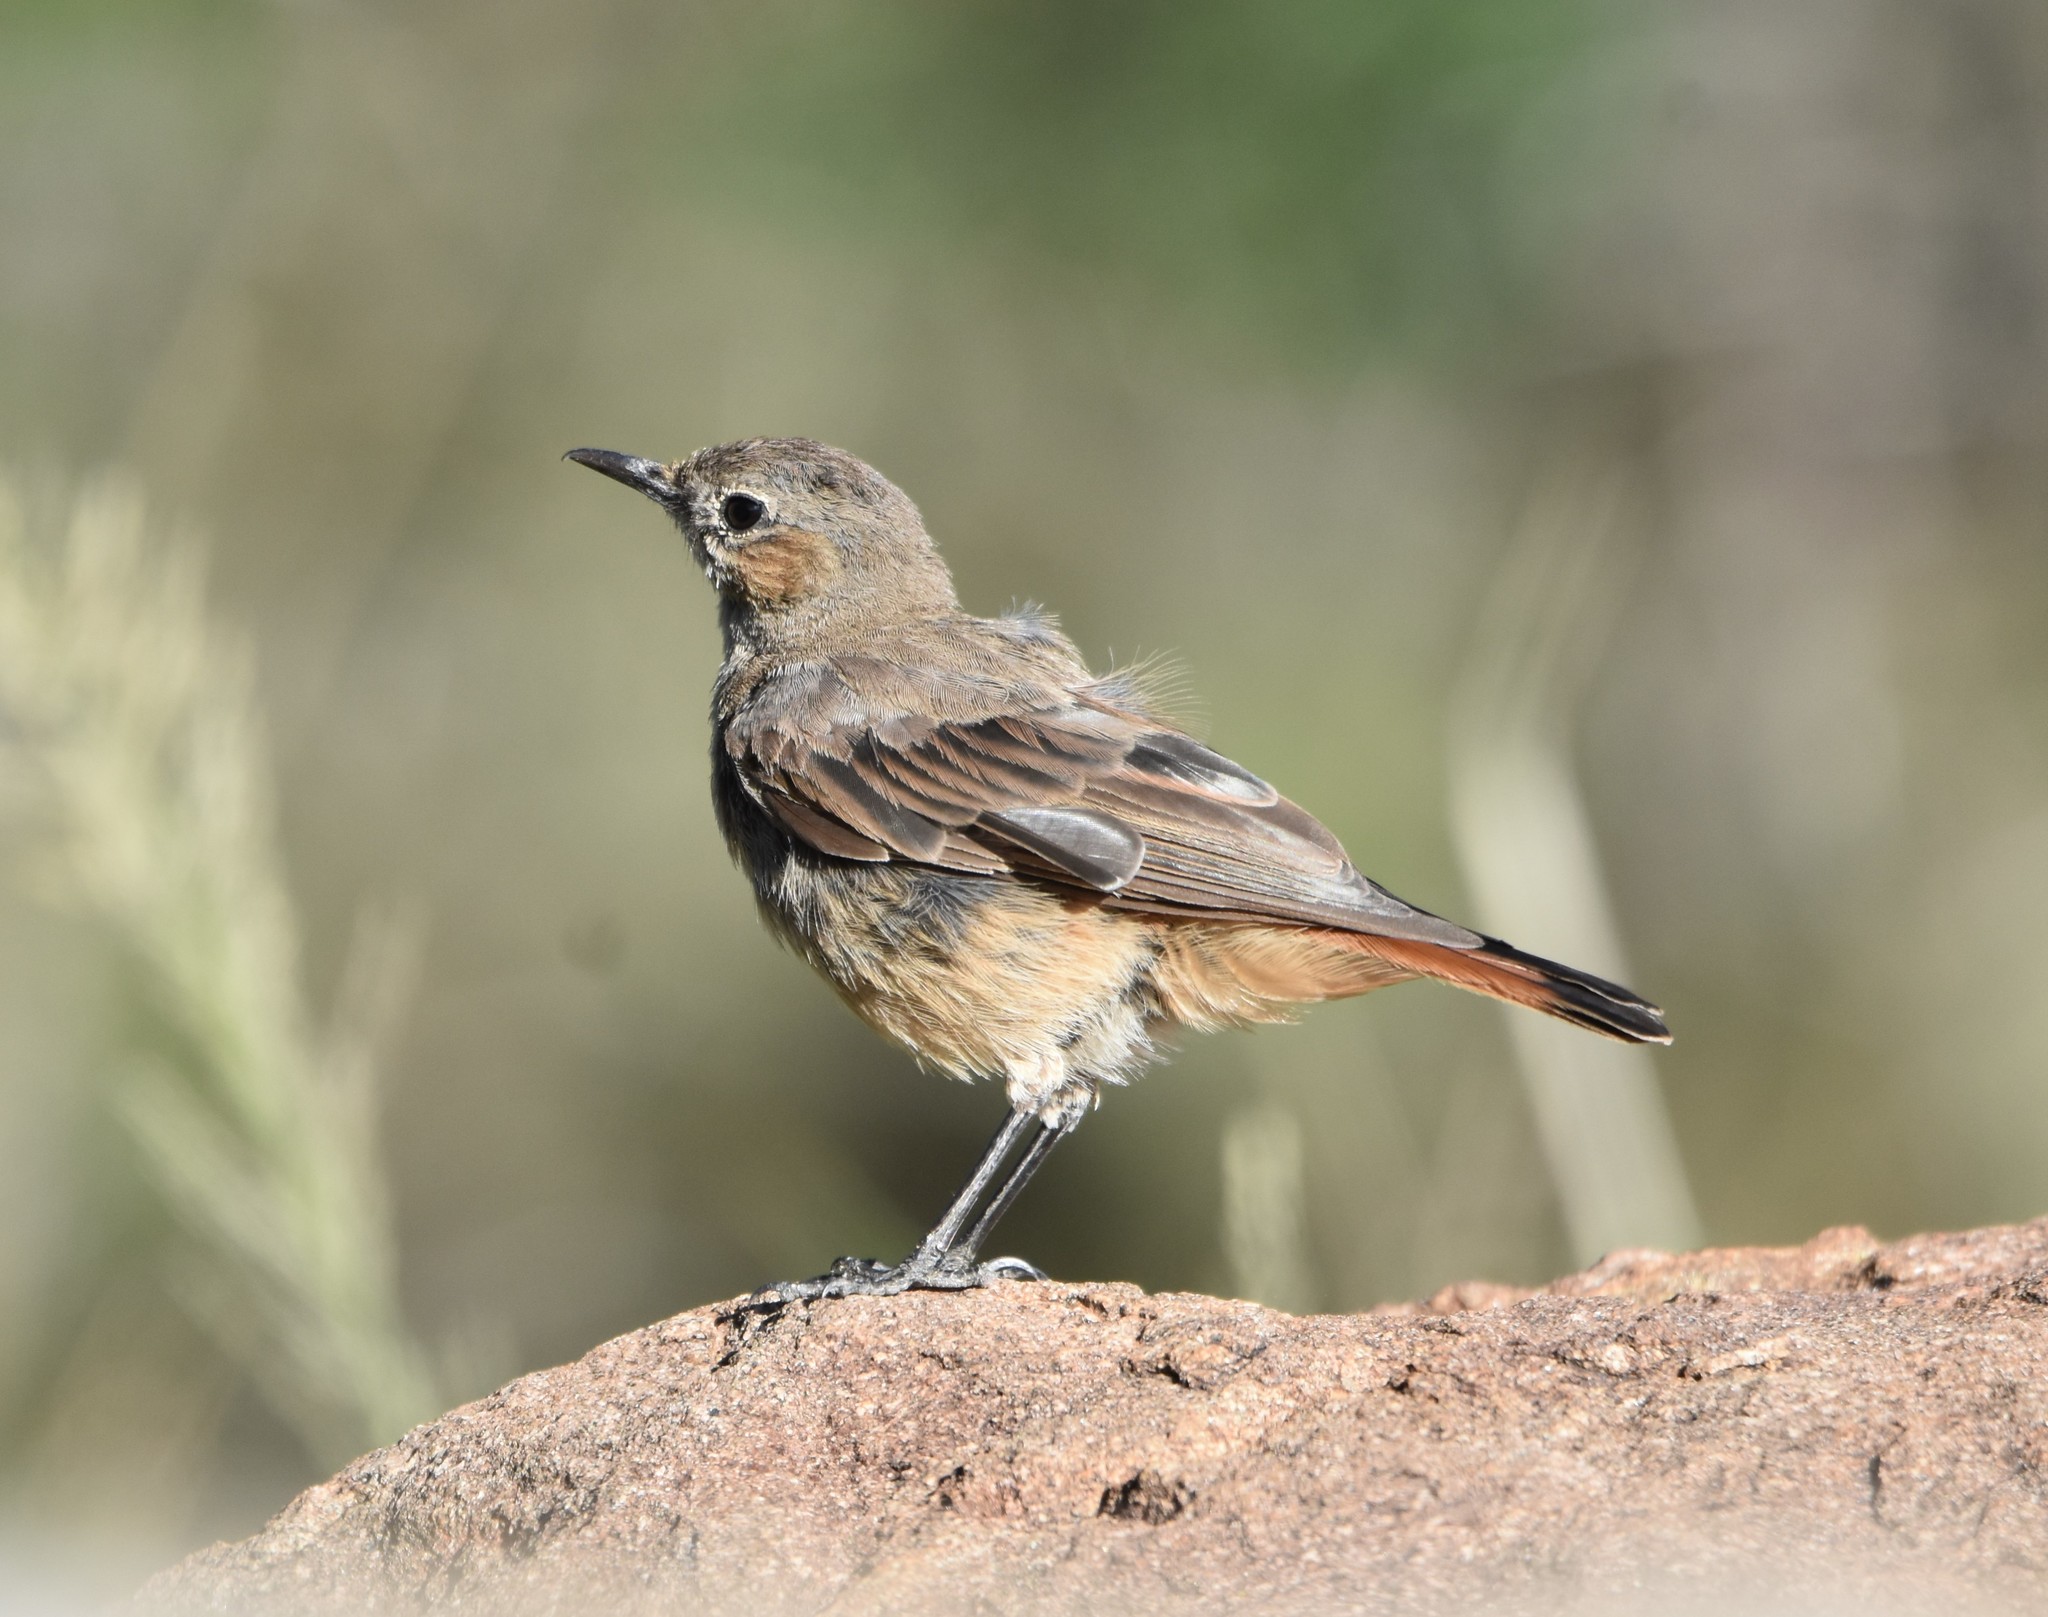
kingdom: Animalia
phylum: Chordata
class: Aves
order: Passeriformes
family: Muscicapidae
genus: Oenanthe
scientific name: Oenanthe familiaris
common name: Familiar chat
